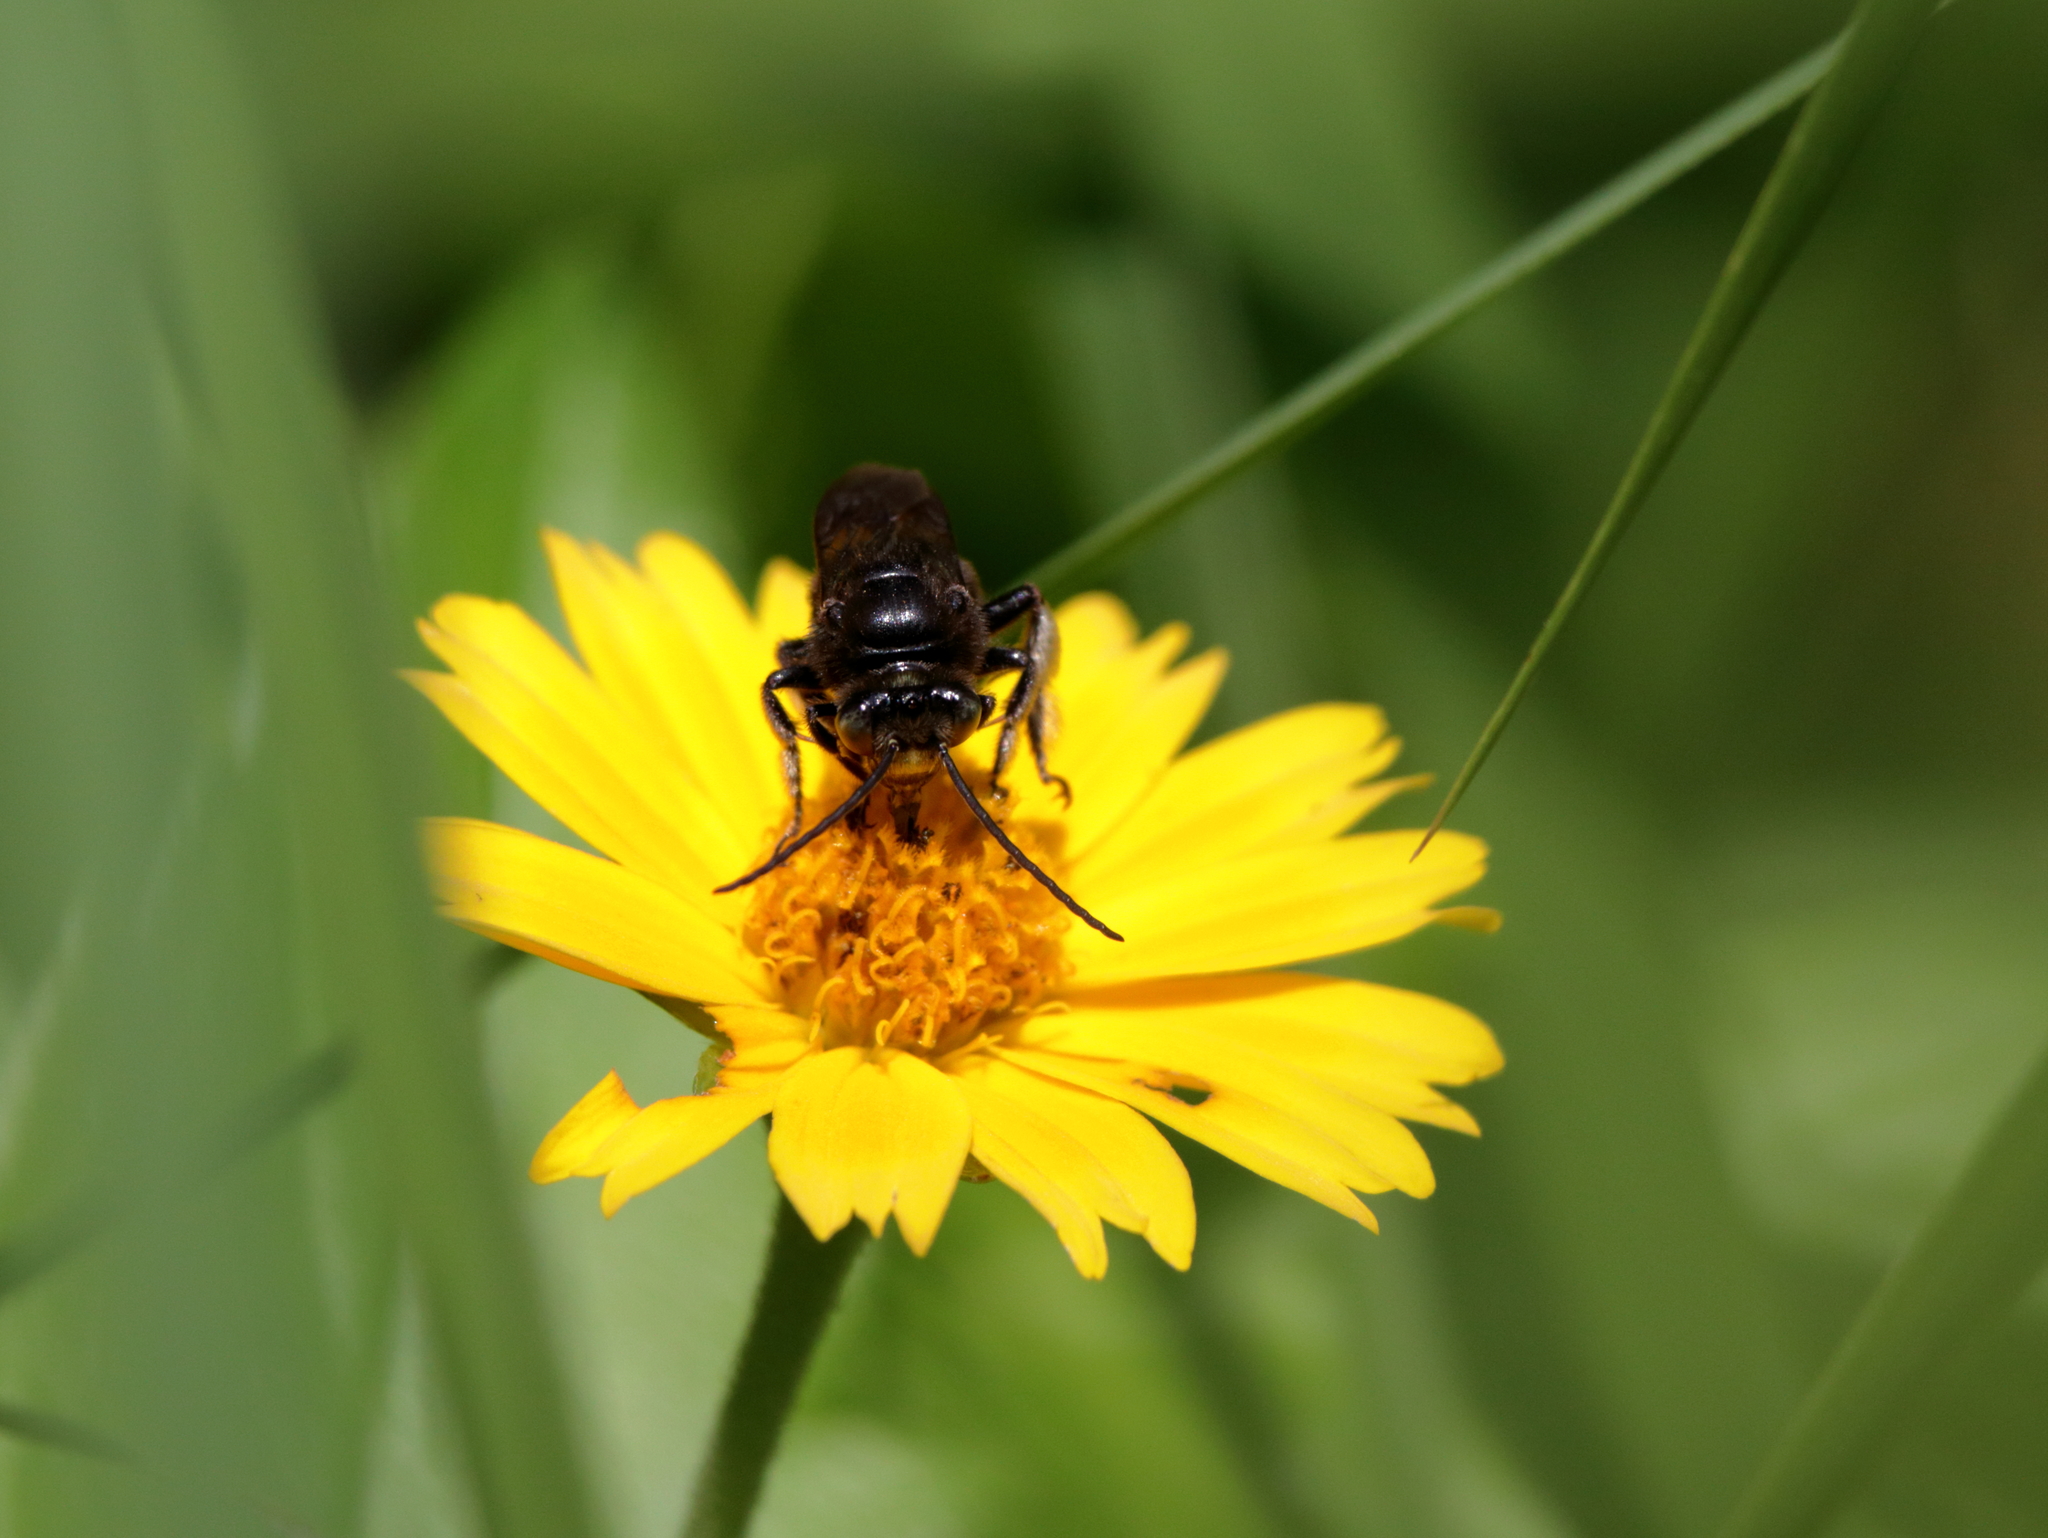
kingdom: Animalia
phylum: Arthropoda
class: Insecta
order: Hymenoptera
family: Apidae
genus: Melissodes
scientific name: Melissodes bimaculatus
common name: Two-spotted long-horned bee
